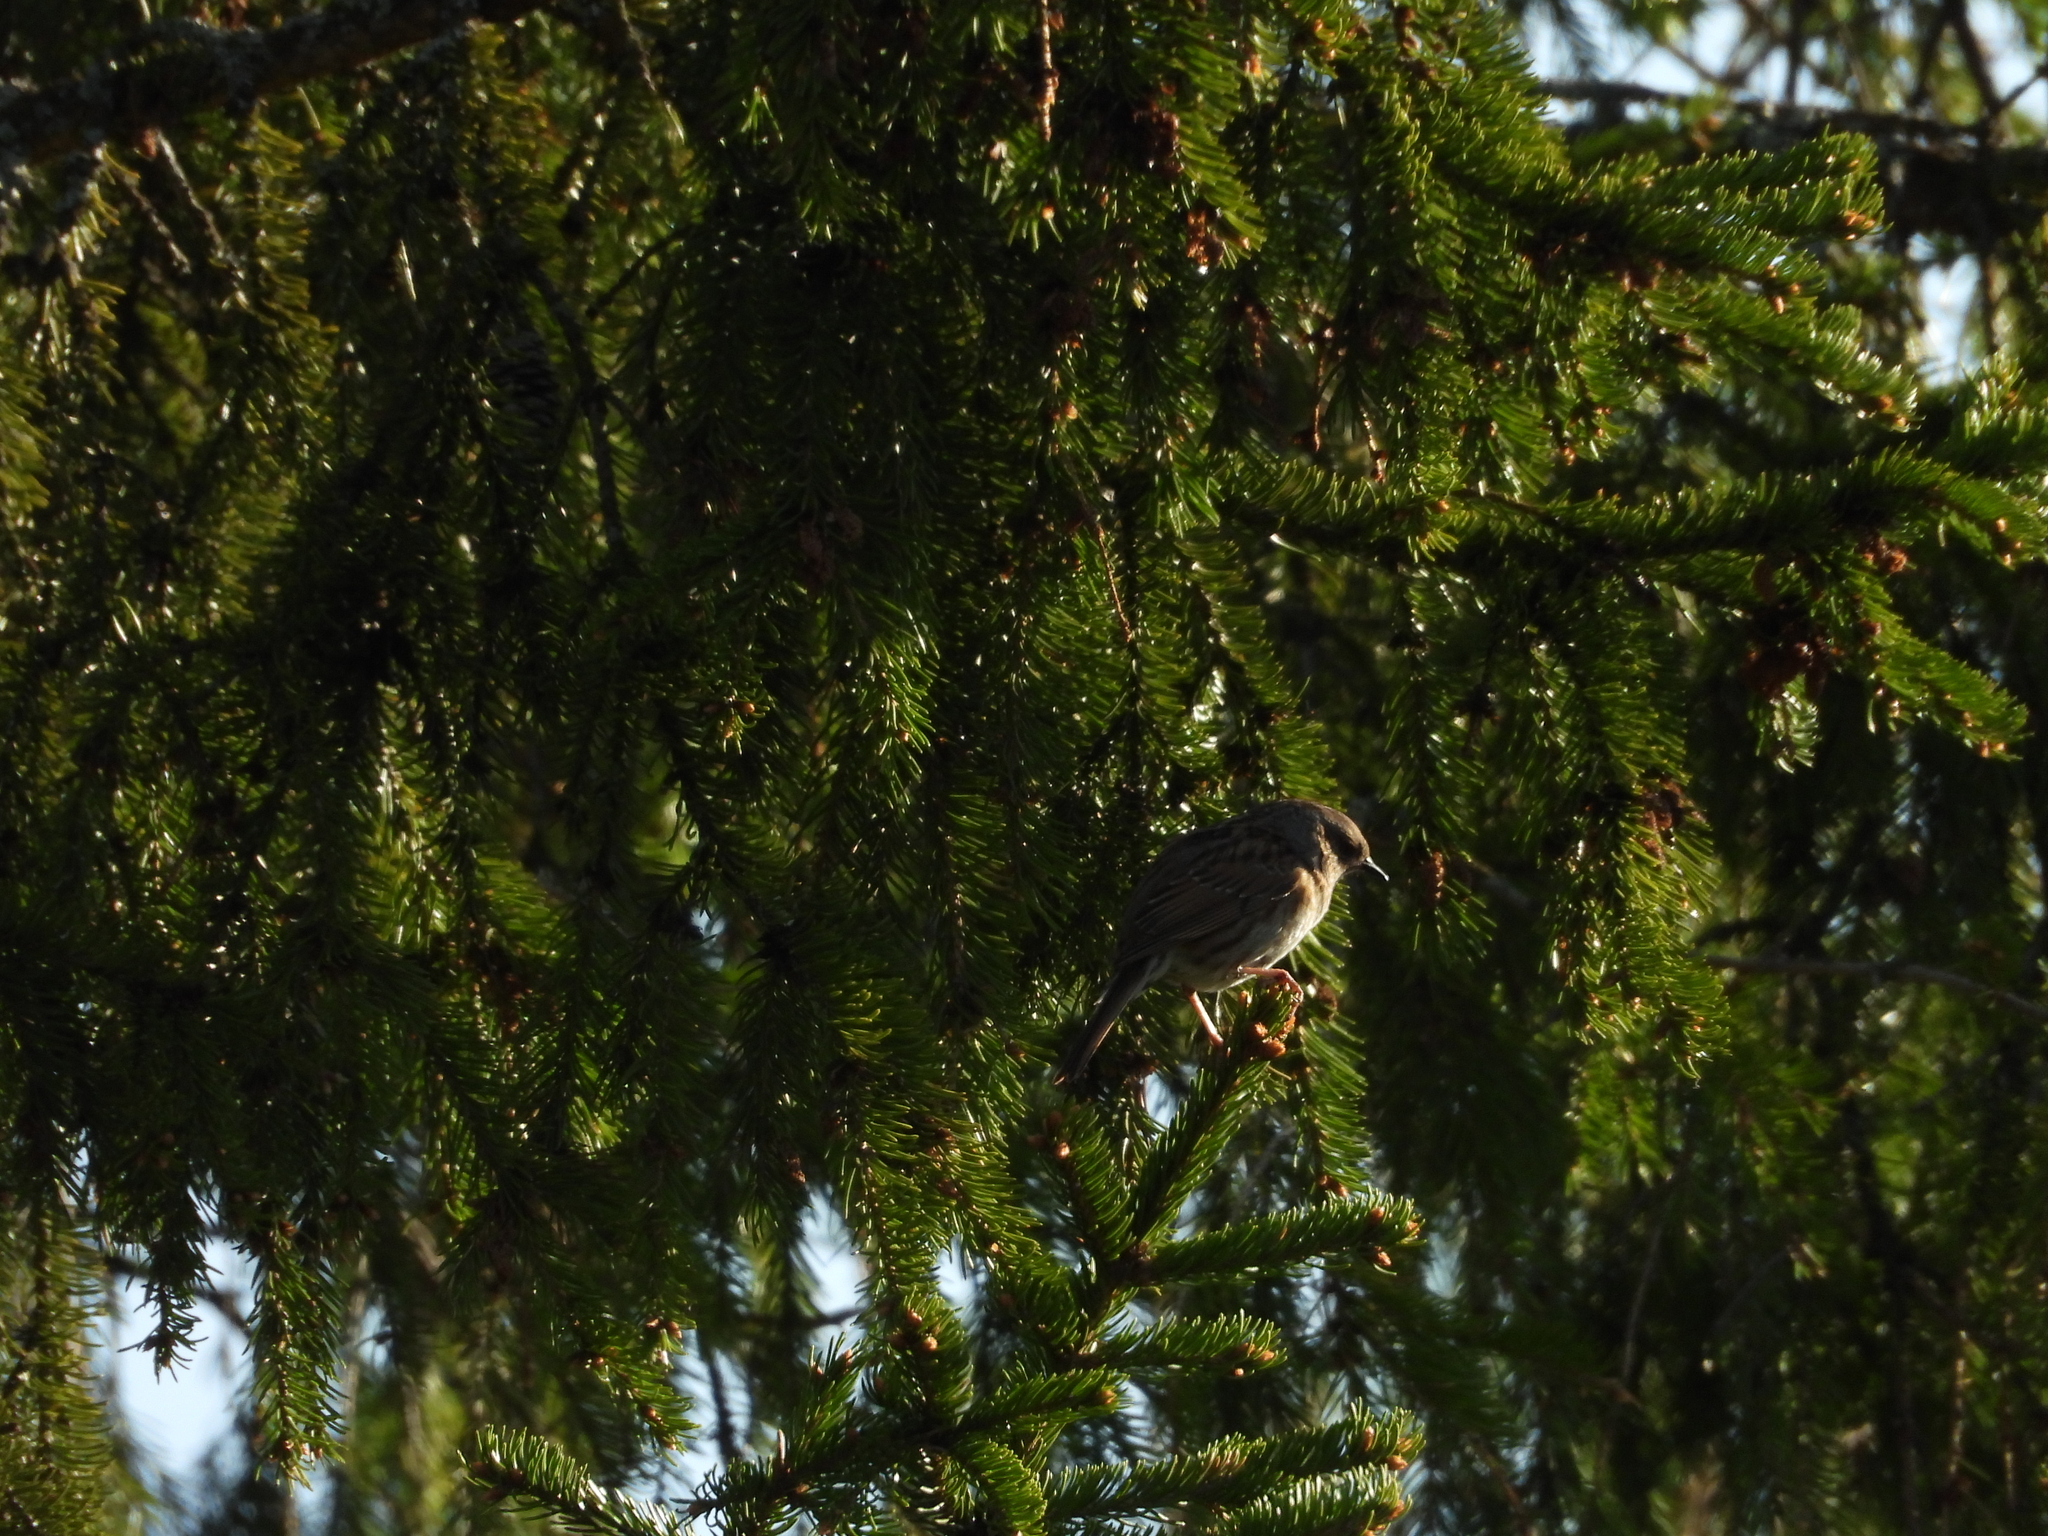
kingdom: Animalia
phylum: Chordata
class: Aves
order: Passeriformes
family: Prunellidae
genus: Prunella
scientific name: Prunella modularis
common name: Dunnock
